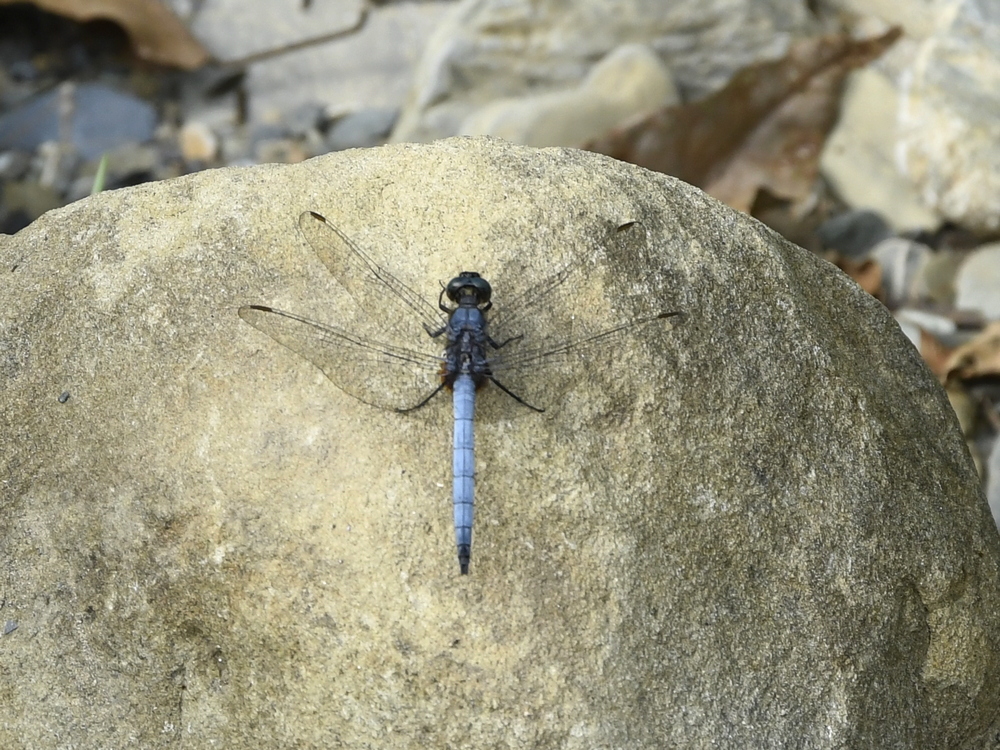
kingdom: Animalia
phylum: Arthropoda
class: Insecta
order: Odonata
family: Libellulidae
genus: Orthetrum
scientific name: Orthetrum glaucum
